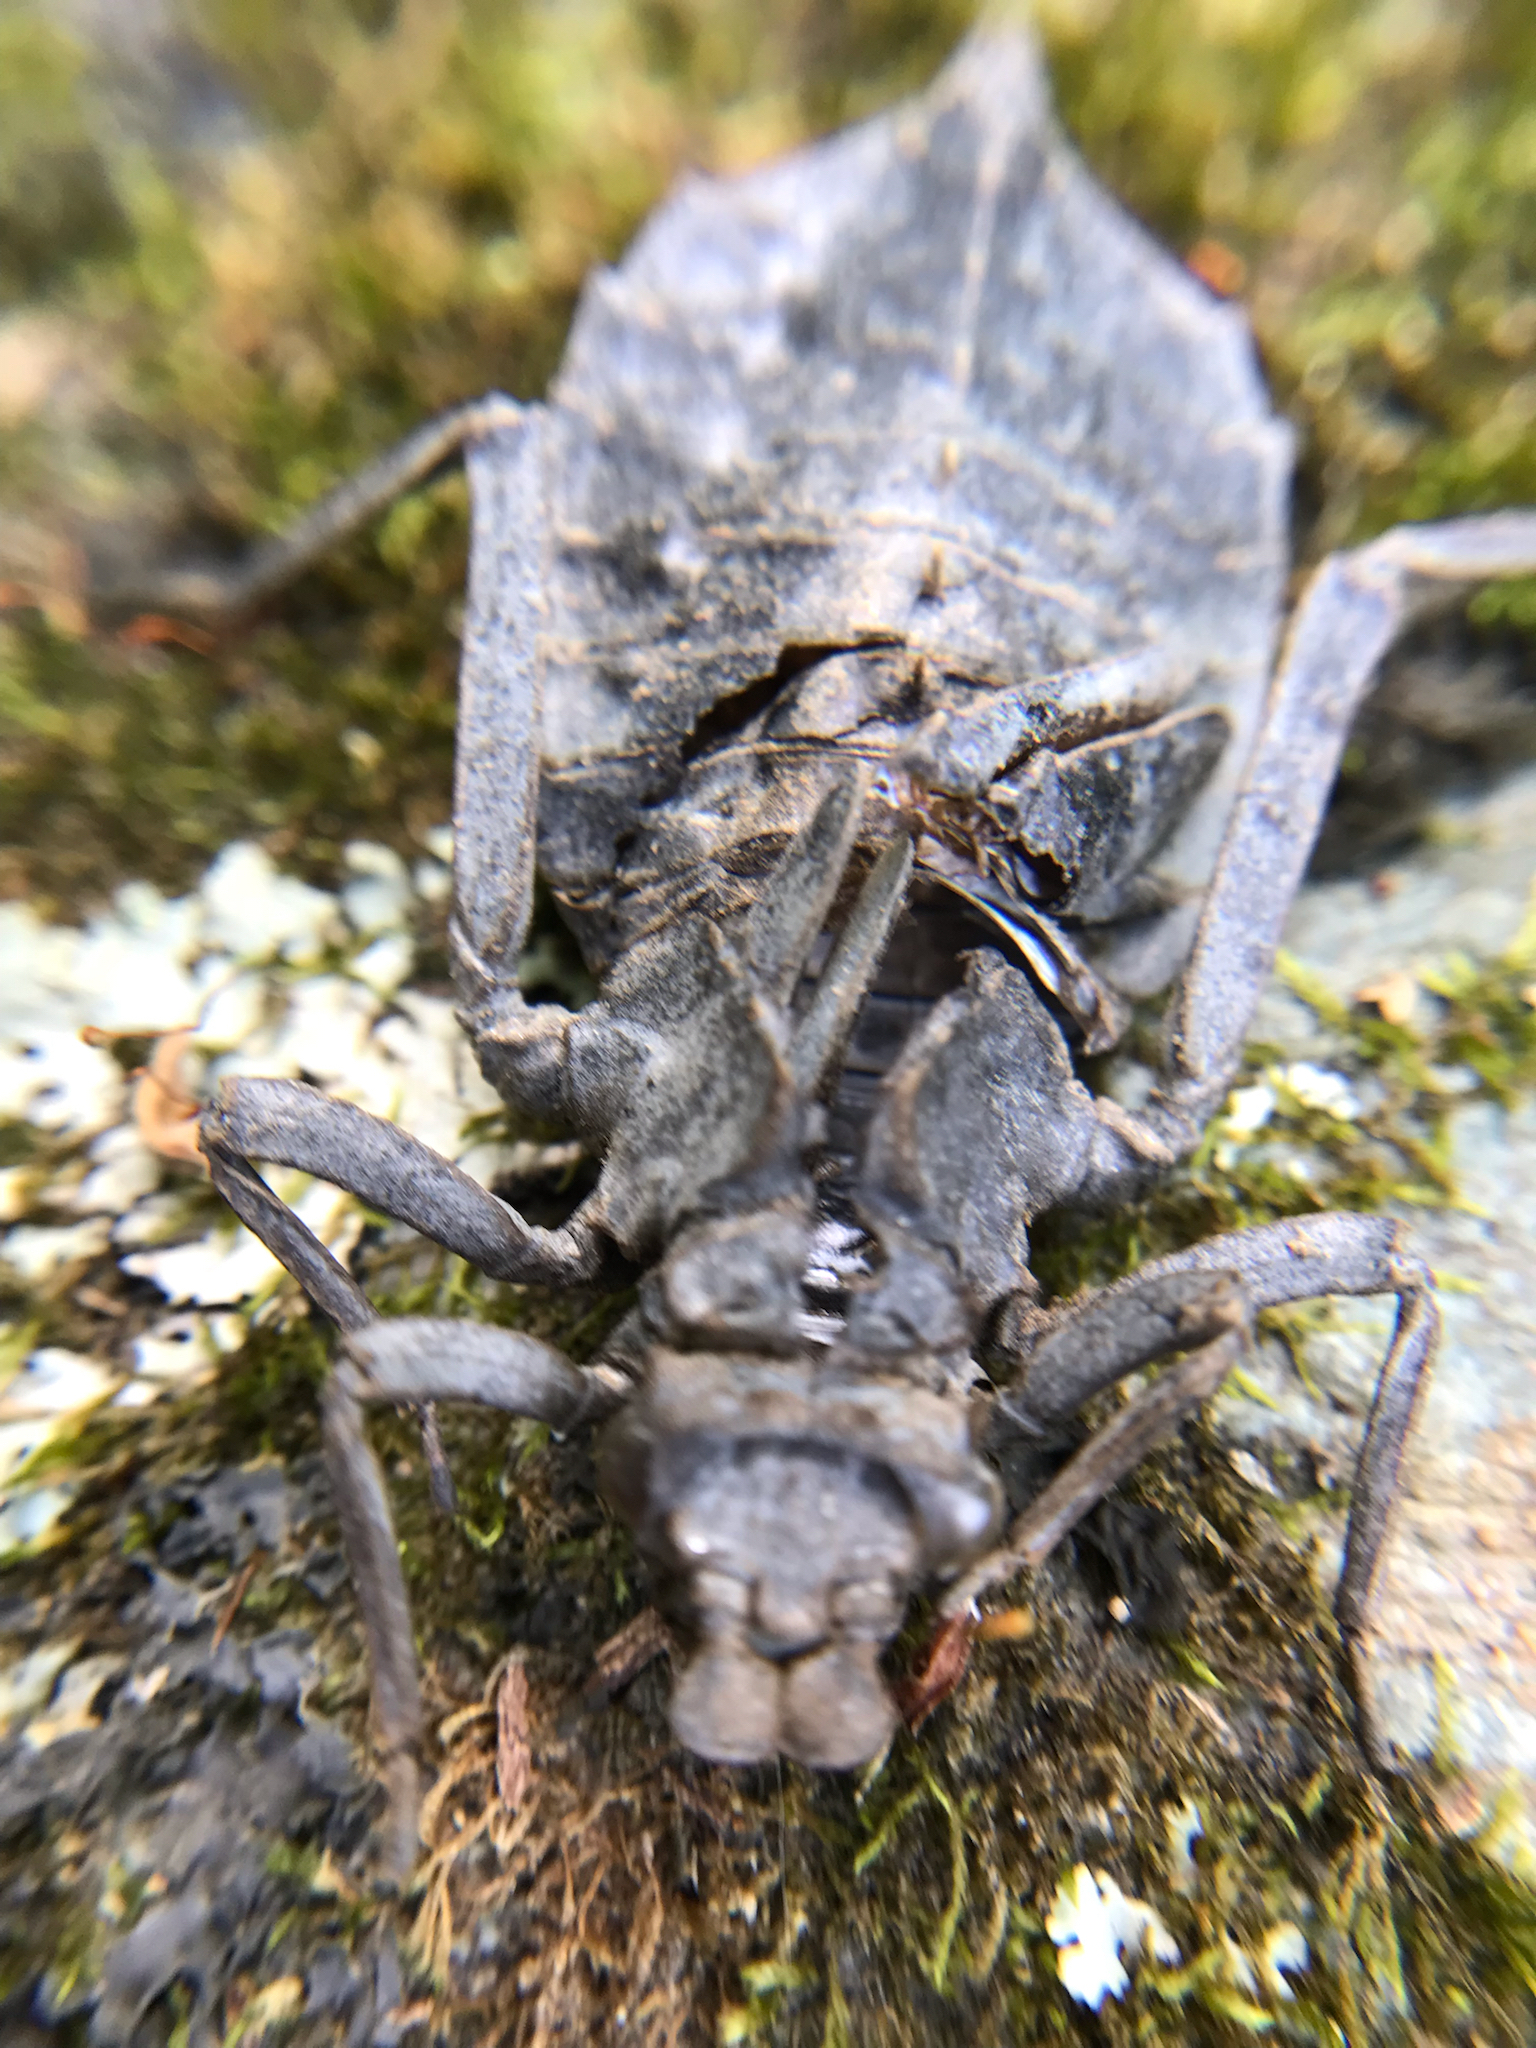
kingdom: Animalia
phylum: Arthropoda
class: Insecta
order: Odonata
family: Gomphidae
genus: Hagenius
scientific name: Hagenius brevistylus
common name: Dragonhunter
